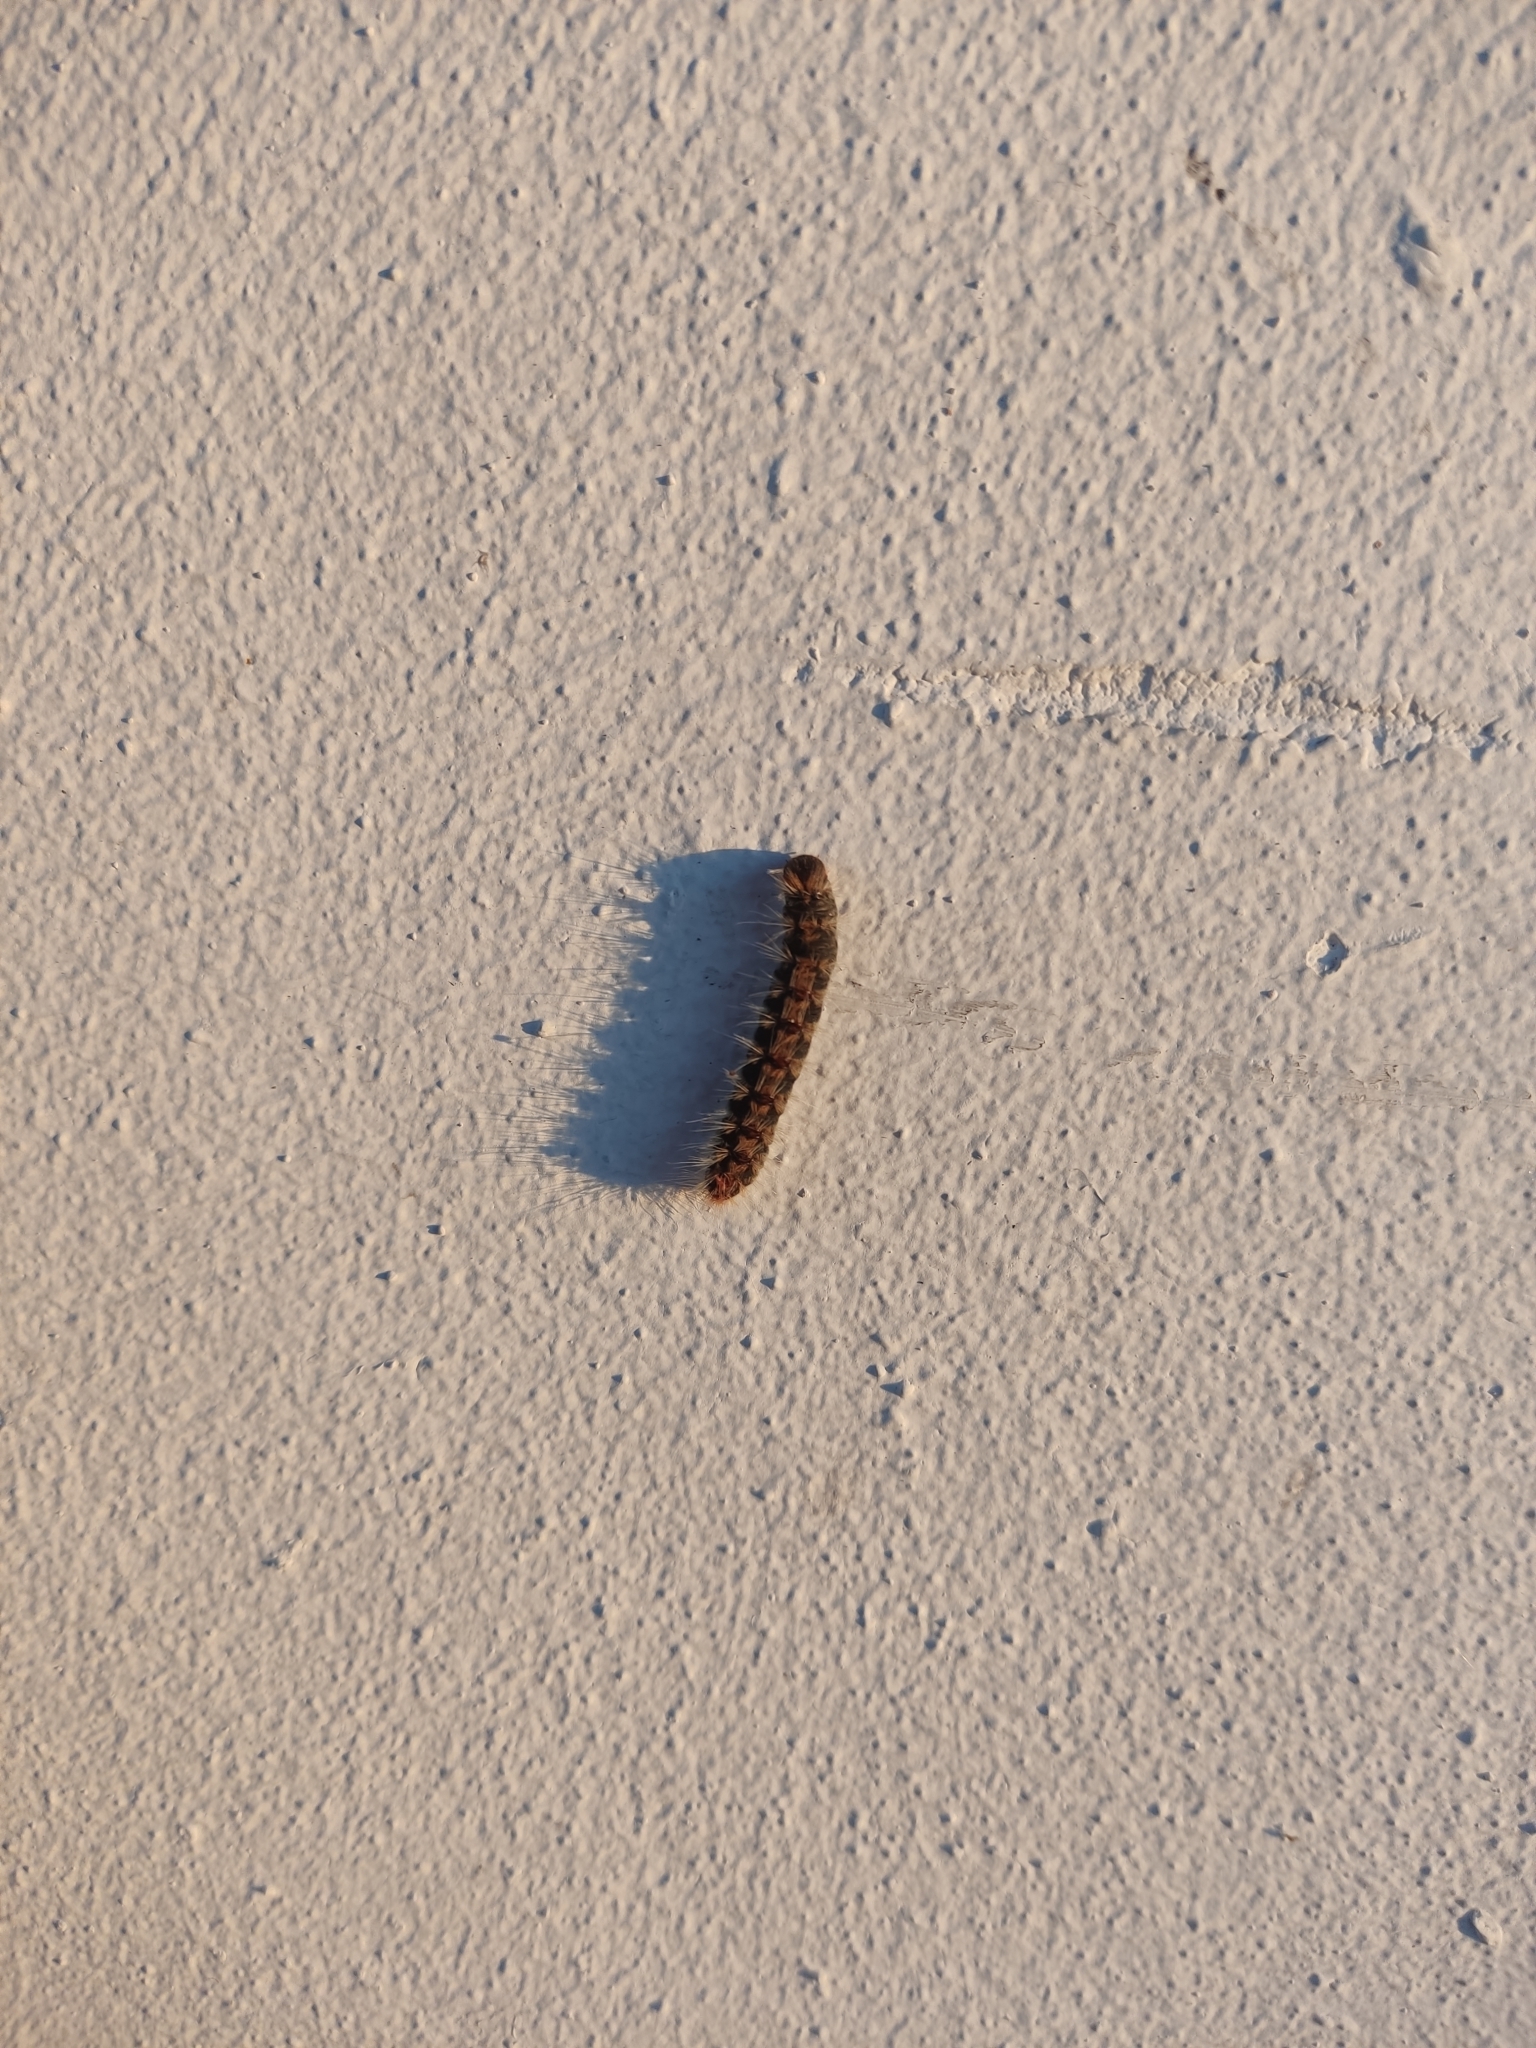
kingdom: Animalia
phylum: Arthropoda
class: Insecta
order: Lepidoptera
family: Notodontidae
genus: Thaumetopoea
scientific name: Thaumetopoea pityocampa
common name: Pine processionary
